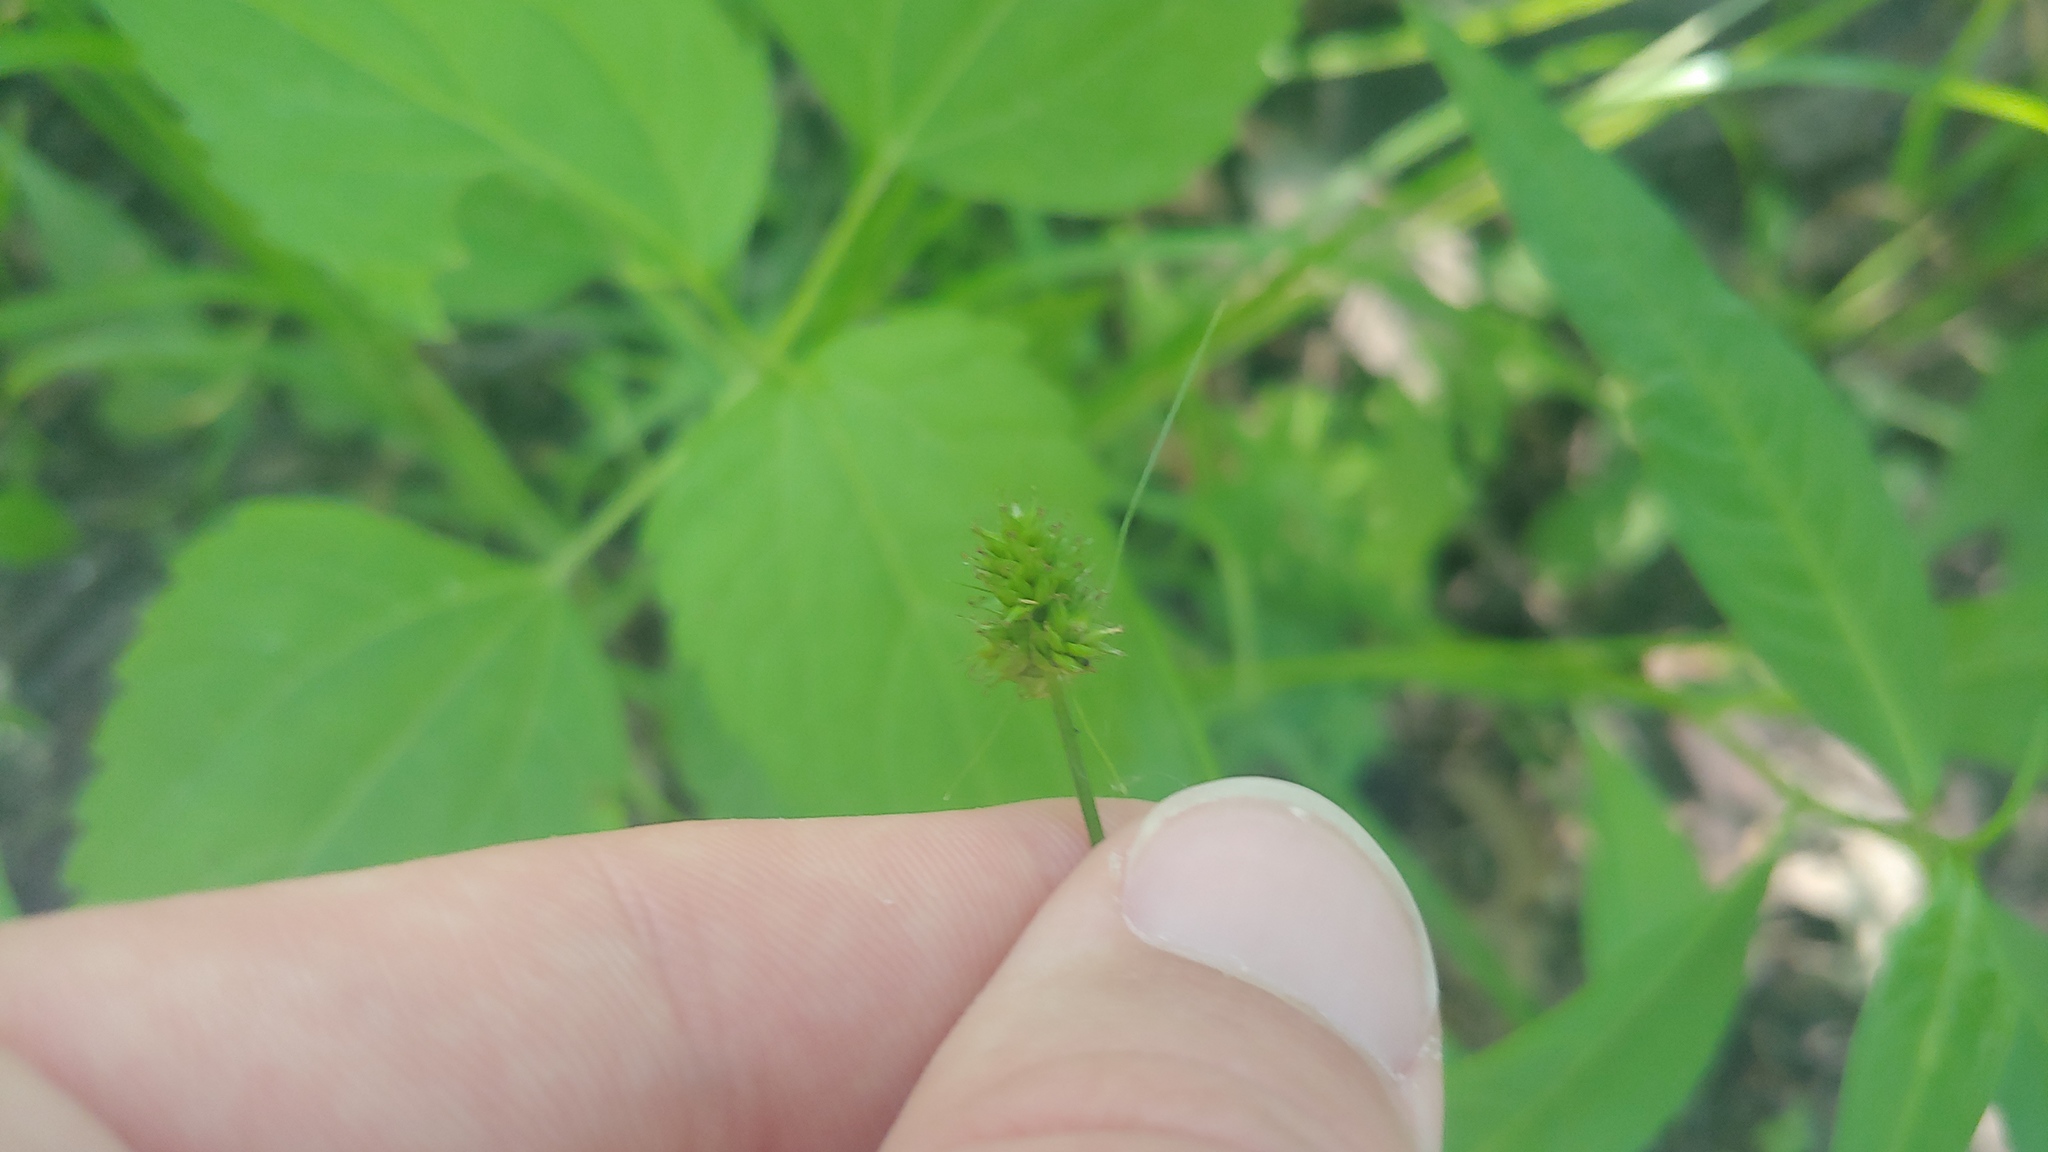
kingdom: Plantae
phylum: Tracheophyta
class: Liliopsida
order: Poales
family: Cyperaceae
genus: Carex
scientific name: Carex cephalophora
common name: Oval-headed sedge
